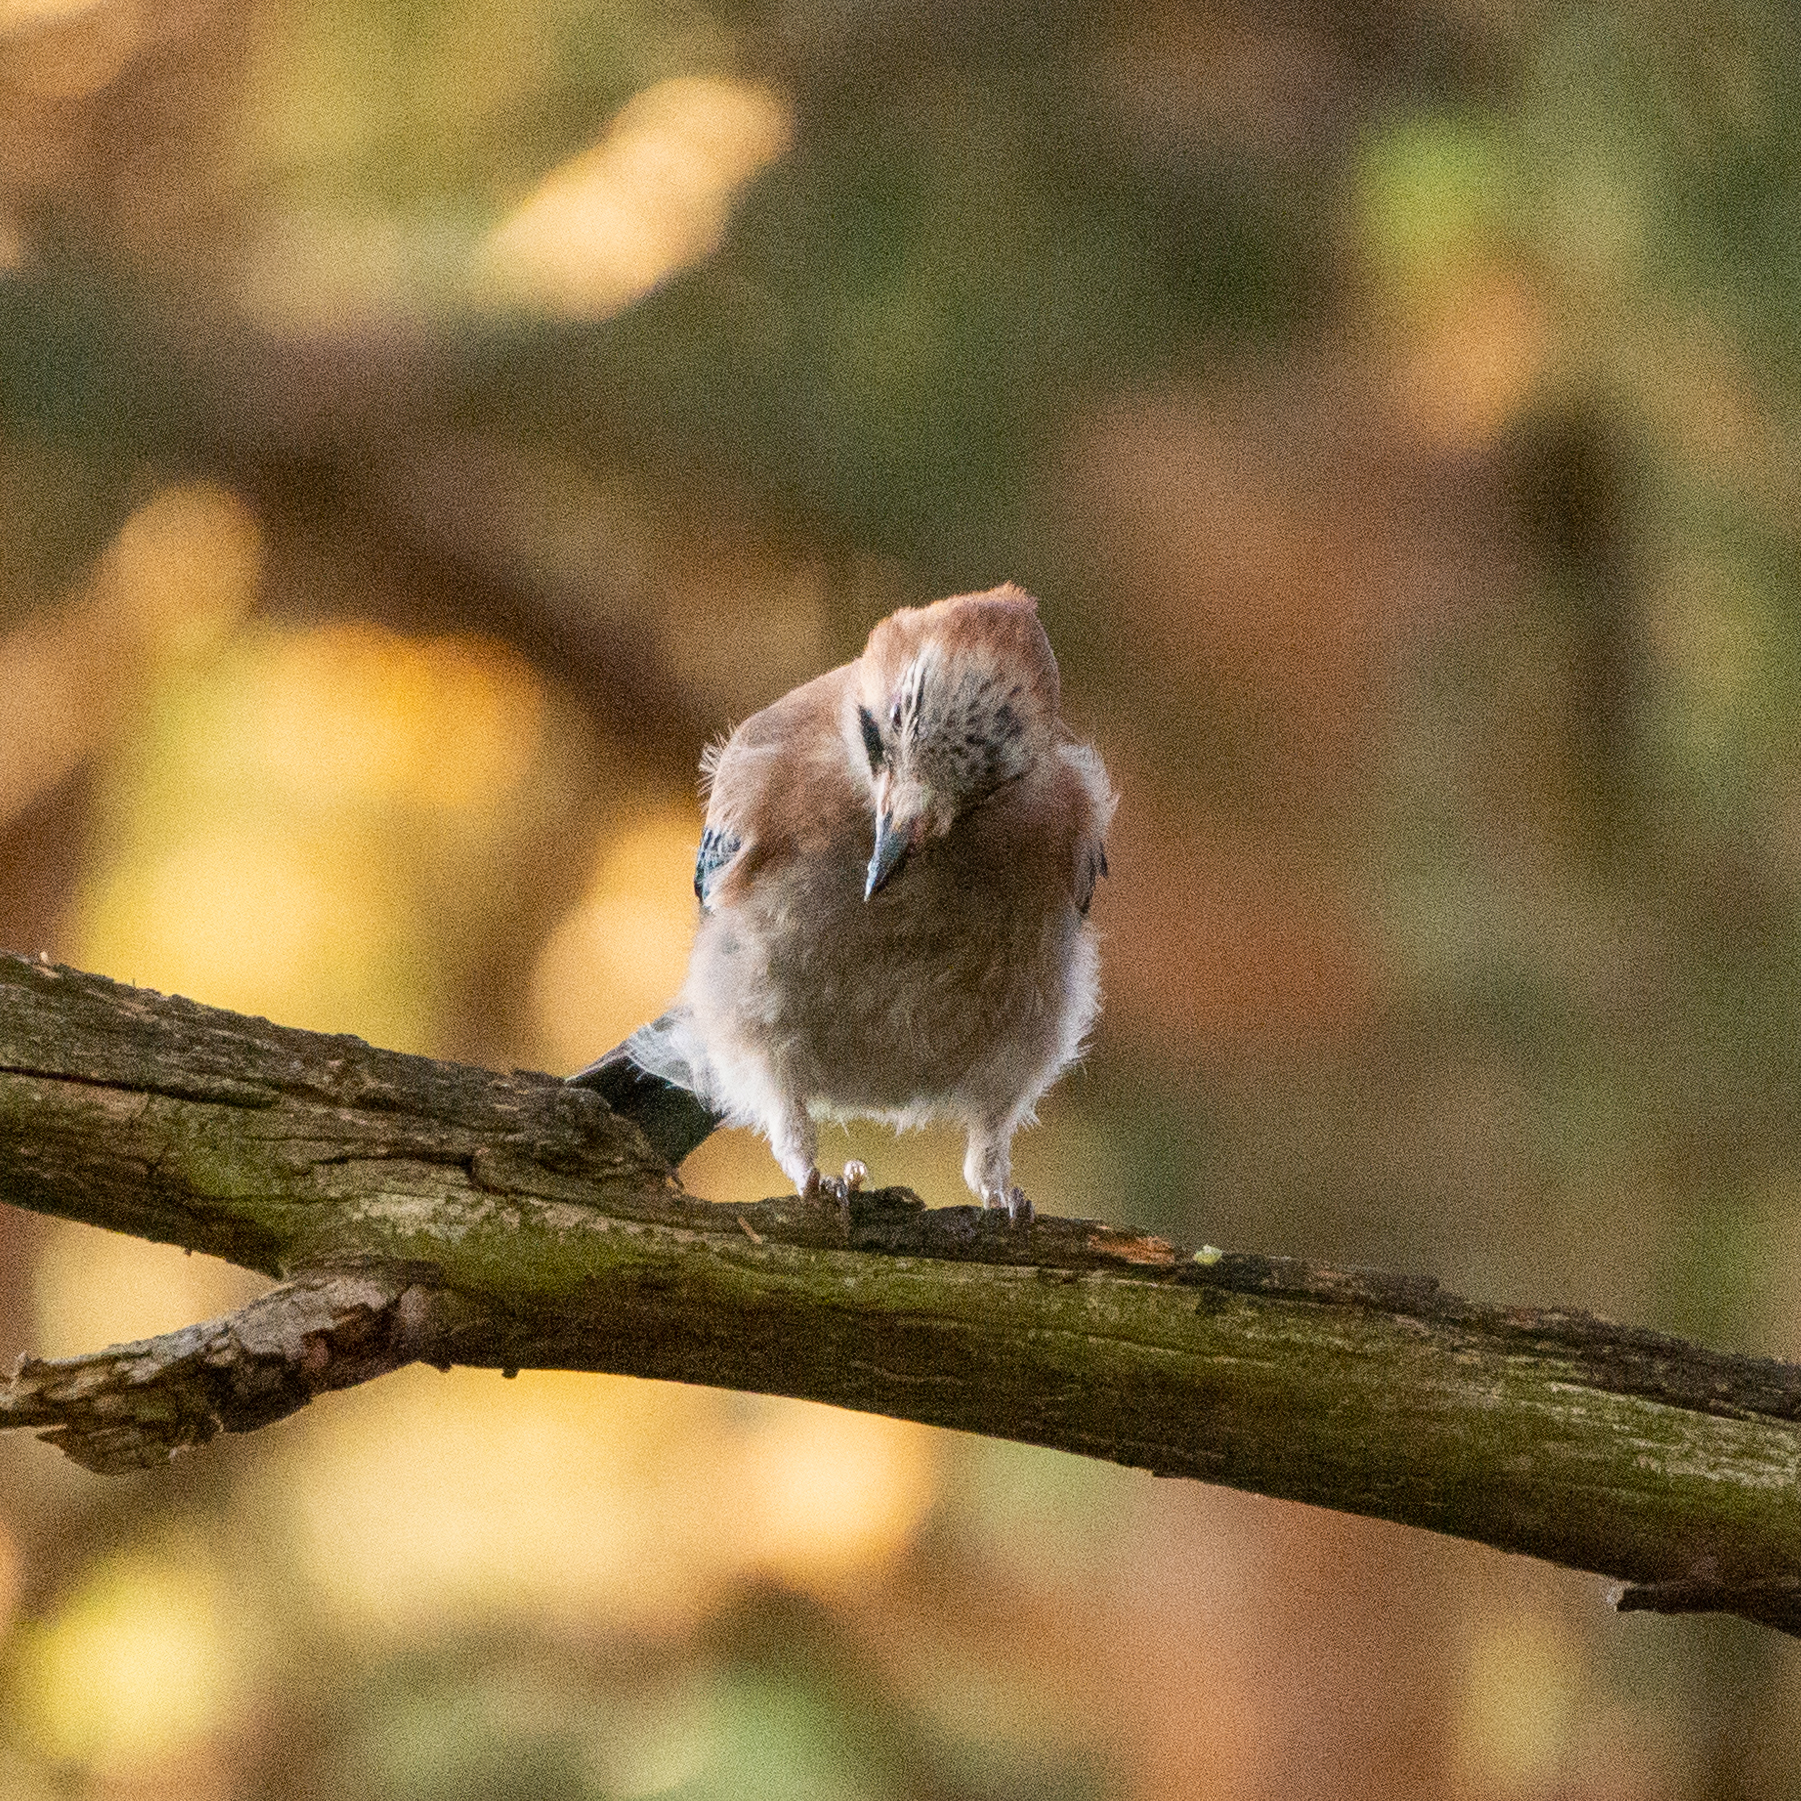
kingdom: Animalia
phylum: Chordata
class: Aves
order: Passeriformes
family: Corvidae
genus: Garrulus
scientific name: Garrulus glandarius
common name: Eurasian jay
